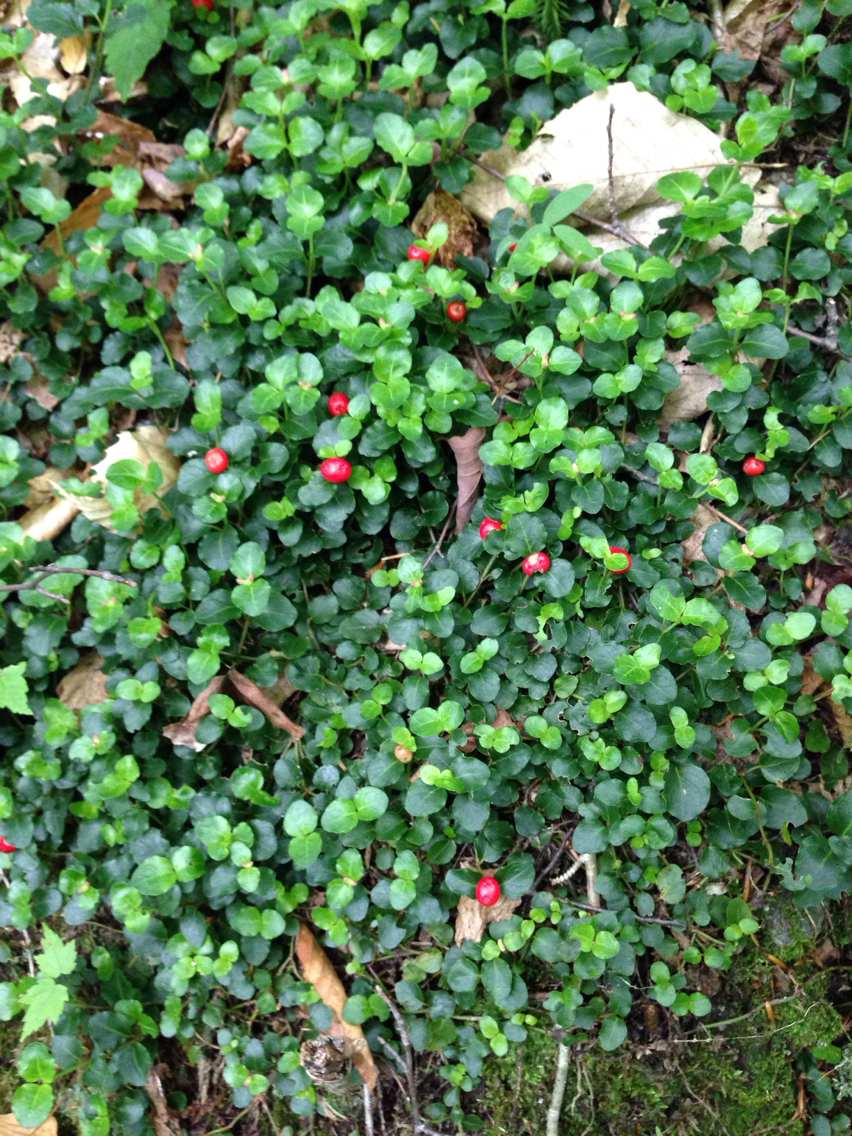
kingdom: Plantae
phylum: Tracheophyta
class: Magnoliopsida
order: Gentianales
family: Rubiaceae
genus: Mitchella
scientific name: Mitchella repens
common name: Partridge-berry
